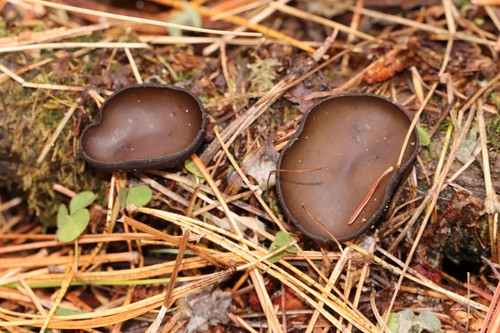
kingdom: Fungi
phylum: Ascomycota
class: Pezizomycetes
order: Pezizales
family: Sarcosomataceae
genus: Pseudoplectania
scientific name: Pseudoplectania melaena
